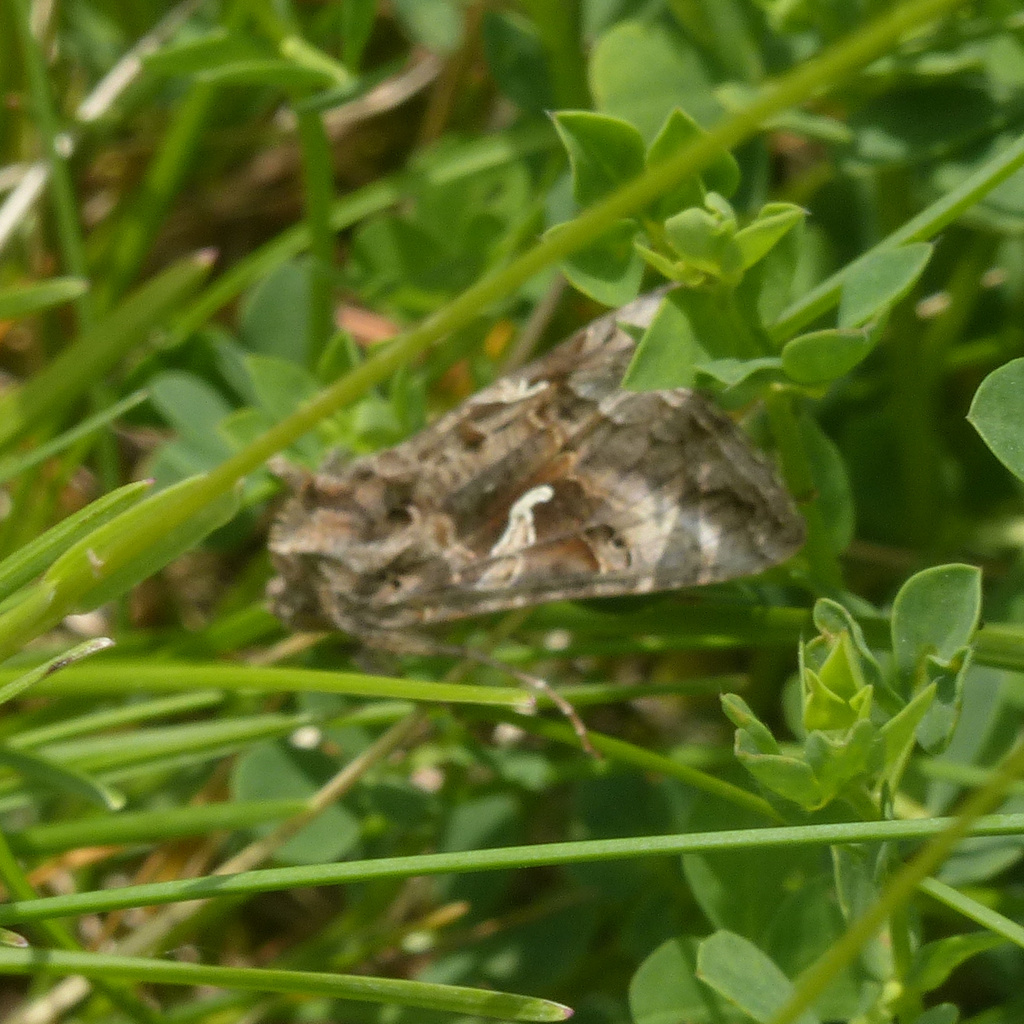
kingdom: Animalia
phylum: Arthropoda
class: Insecta
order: Lepidoptera
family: Noctuidae
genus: Autographa
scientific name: Autographa gamma
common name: Silver y
